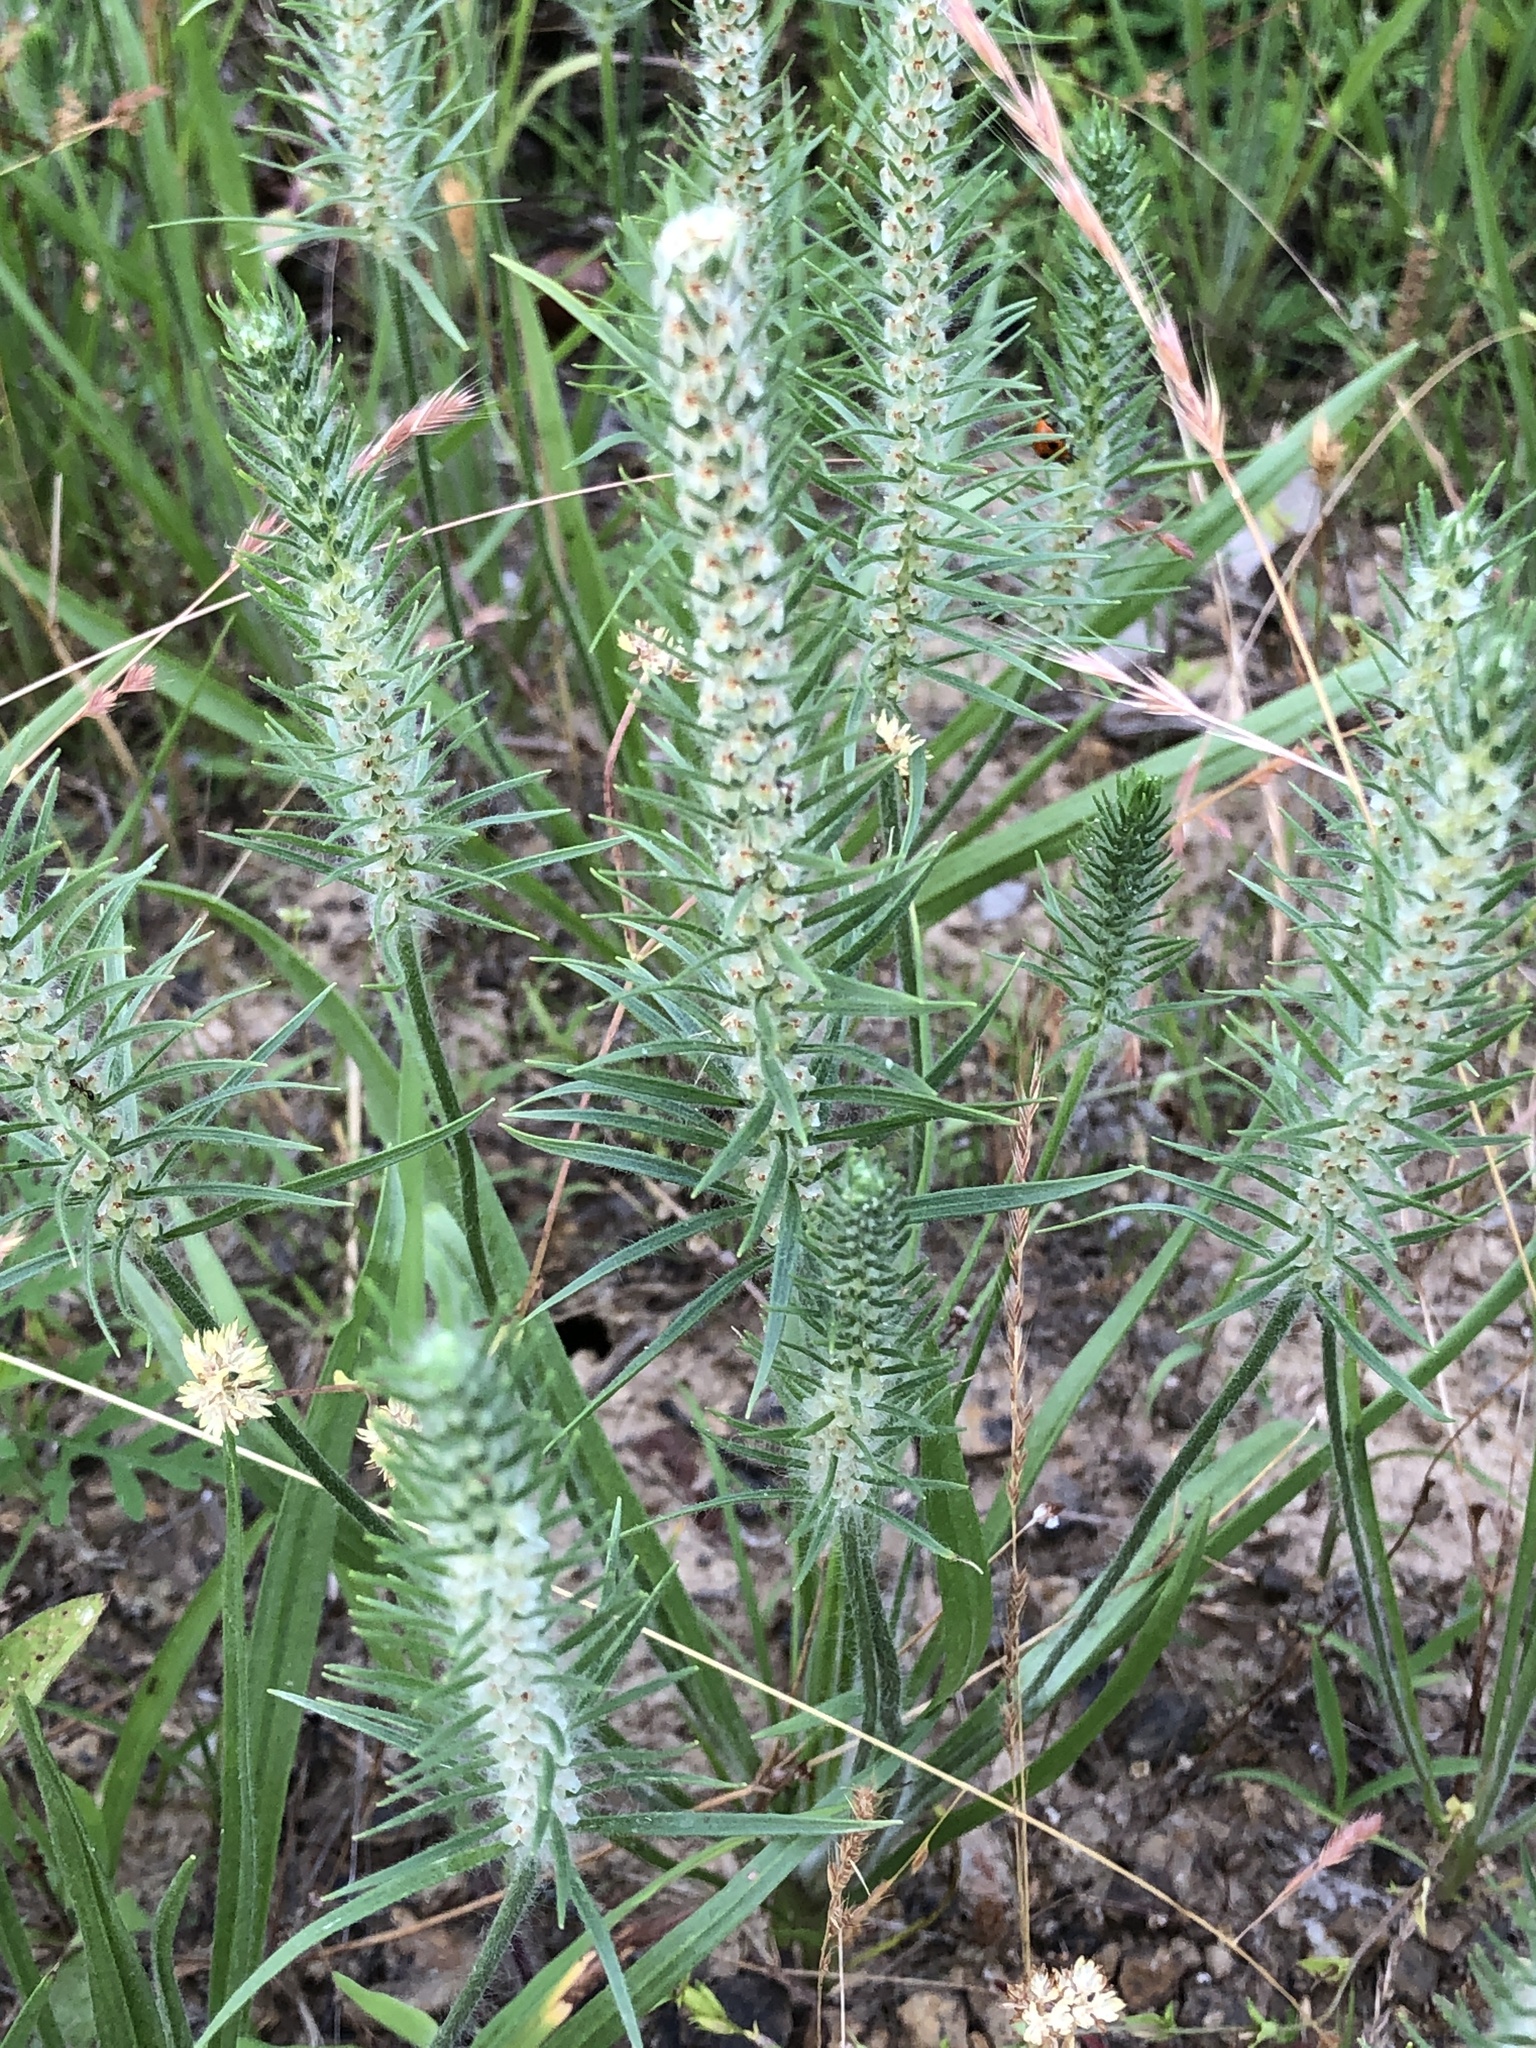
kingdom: Plantae
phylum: Tracheophyta
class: Magnoliopsida
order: Lamiales
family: Plantaginaceae
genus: Plantago
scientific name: Plantago aristata
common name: Bracted plantain
